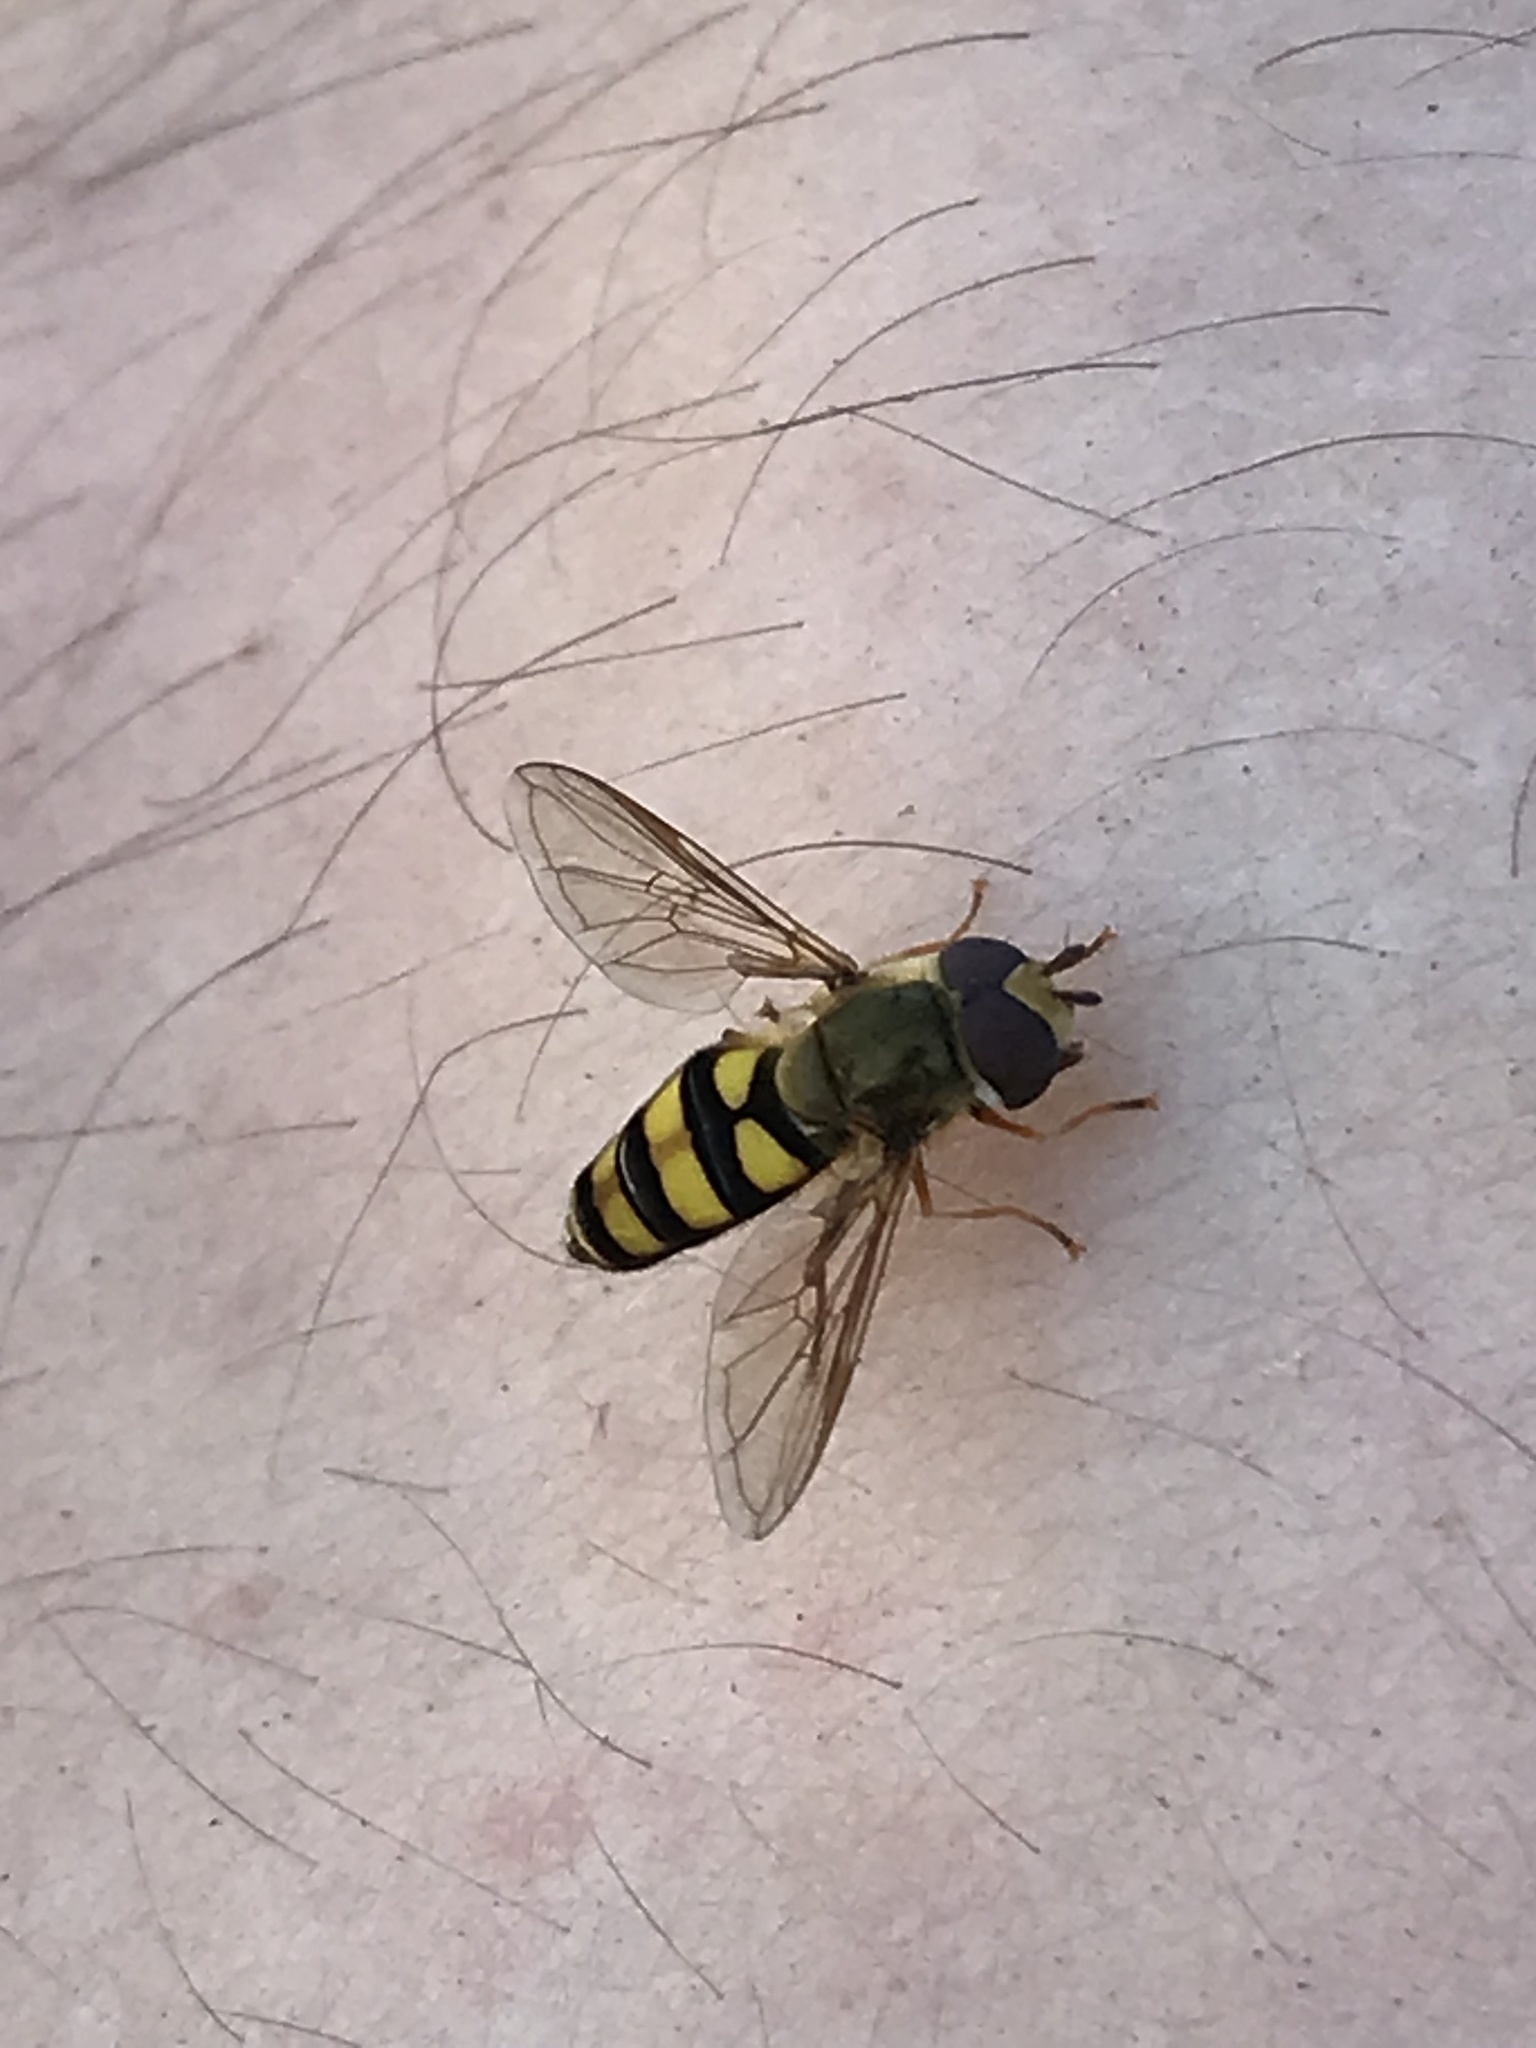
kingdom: Animalia
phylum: Arthropoda
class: Insecta
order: Diptera
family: Syrphidae
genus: Eupeodes
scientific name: Eupeodes
